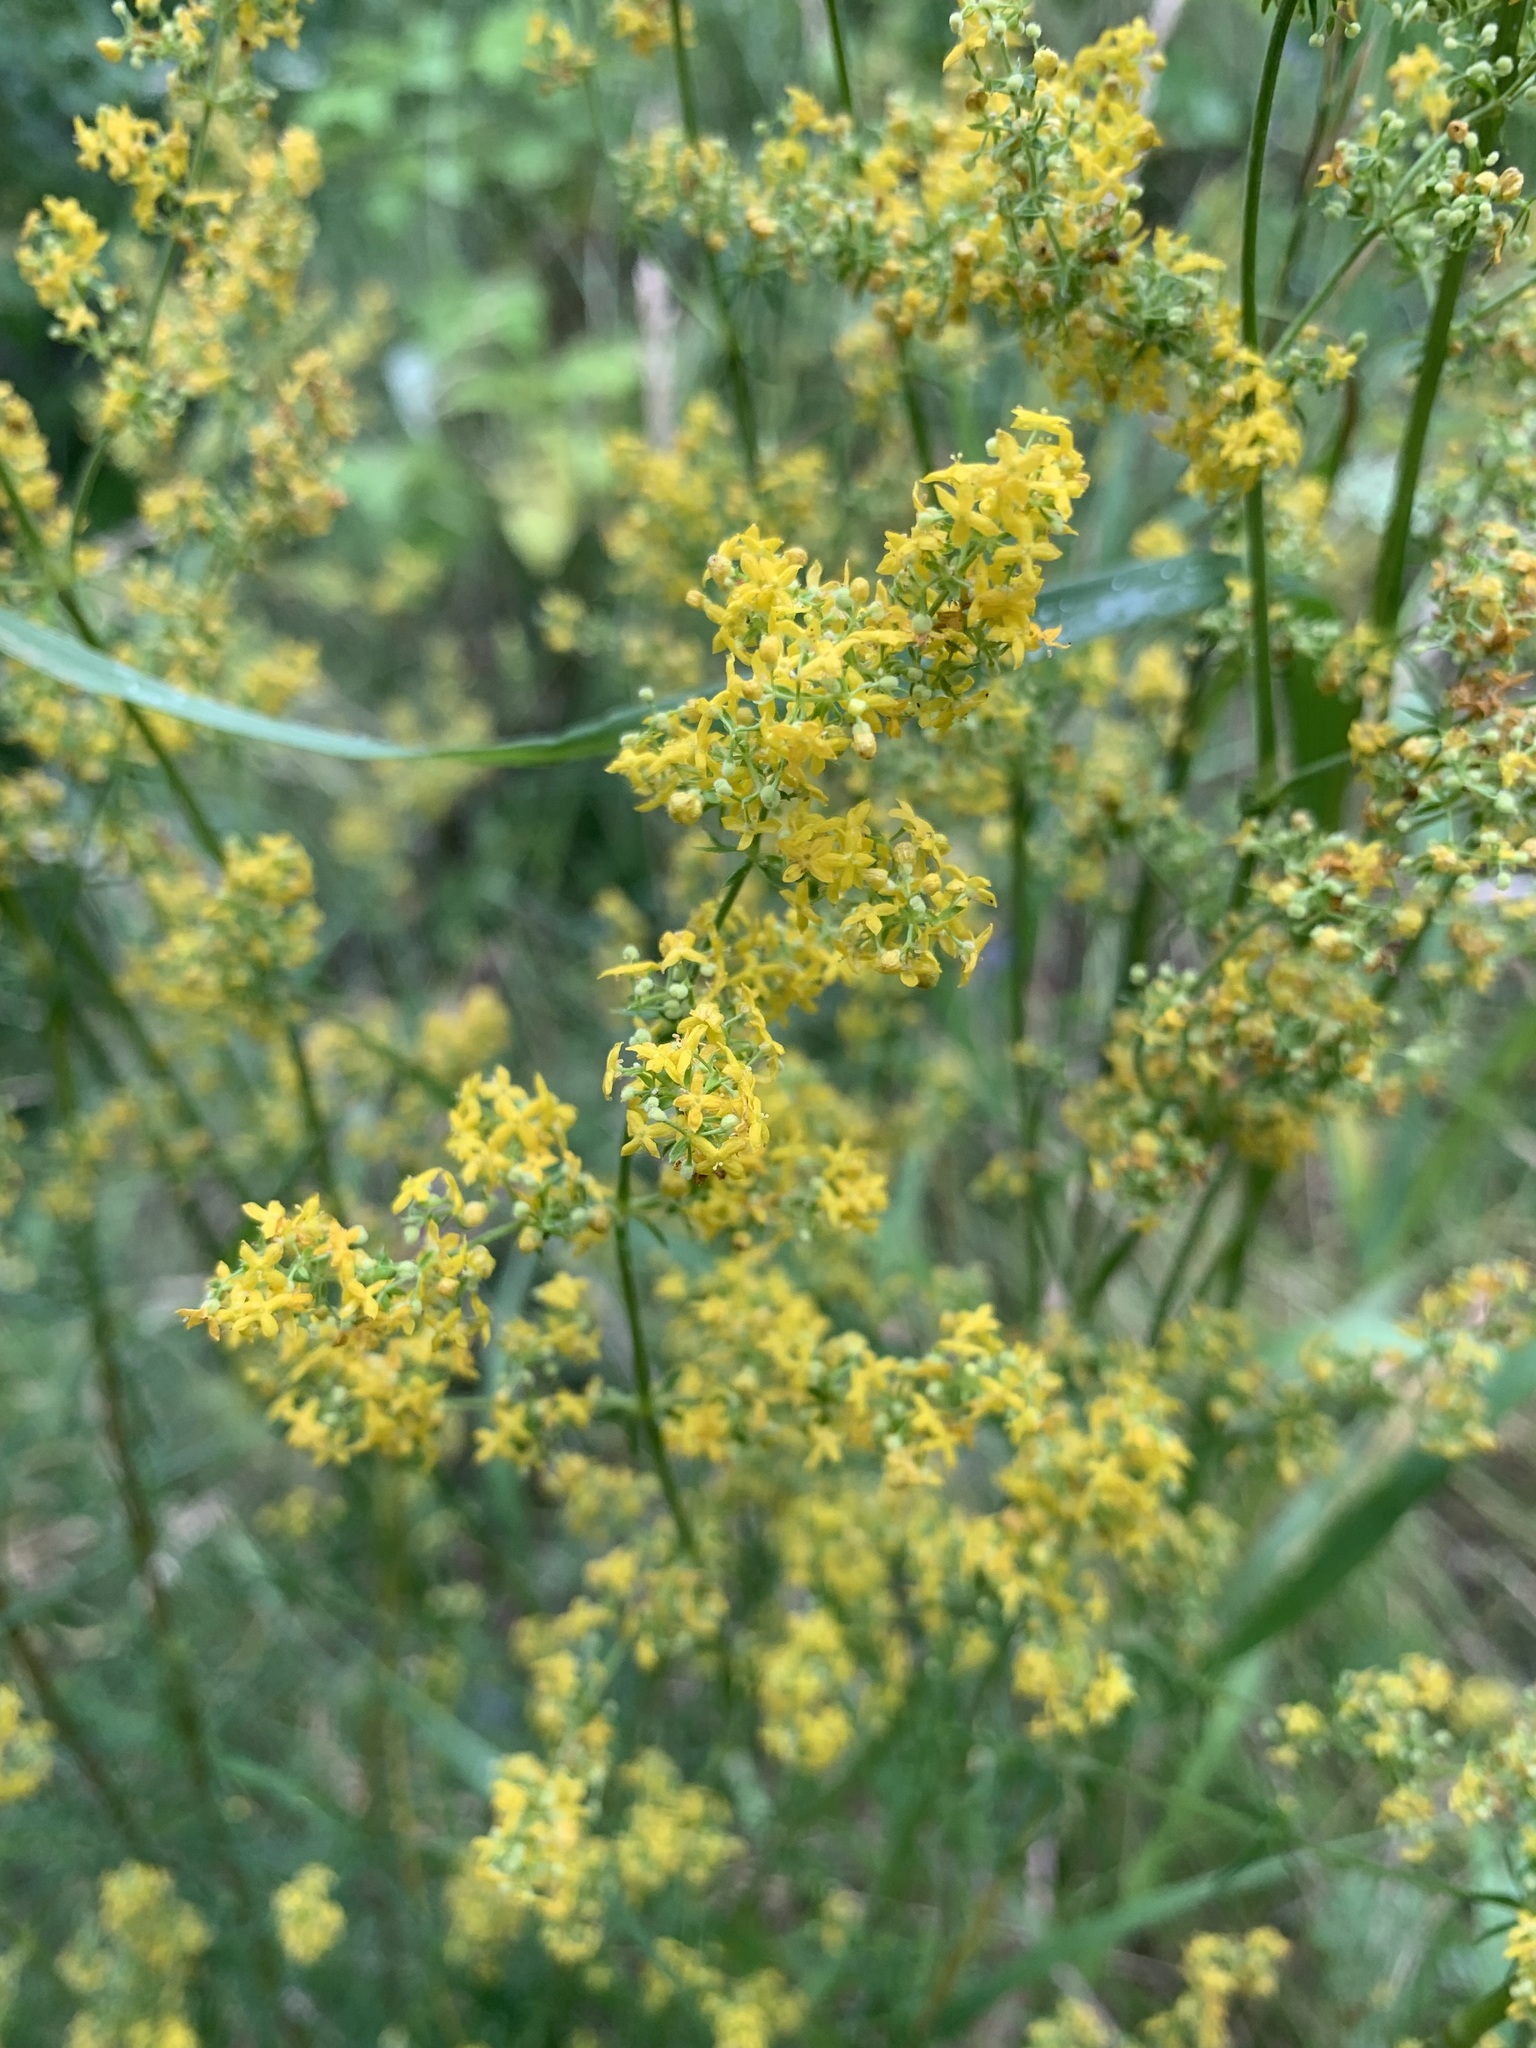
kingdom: Plantae
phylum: Tracheophyta
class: Magnoliopsida
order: Gentianales
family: Rubiaceae
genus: Galium
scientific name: Galium verum
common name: Lady's bedstraw
